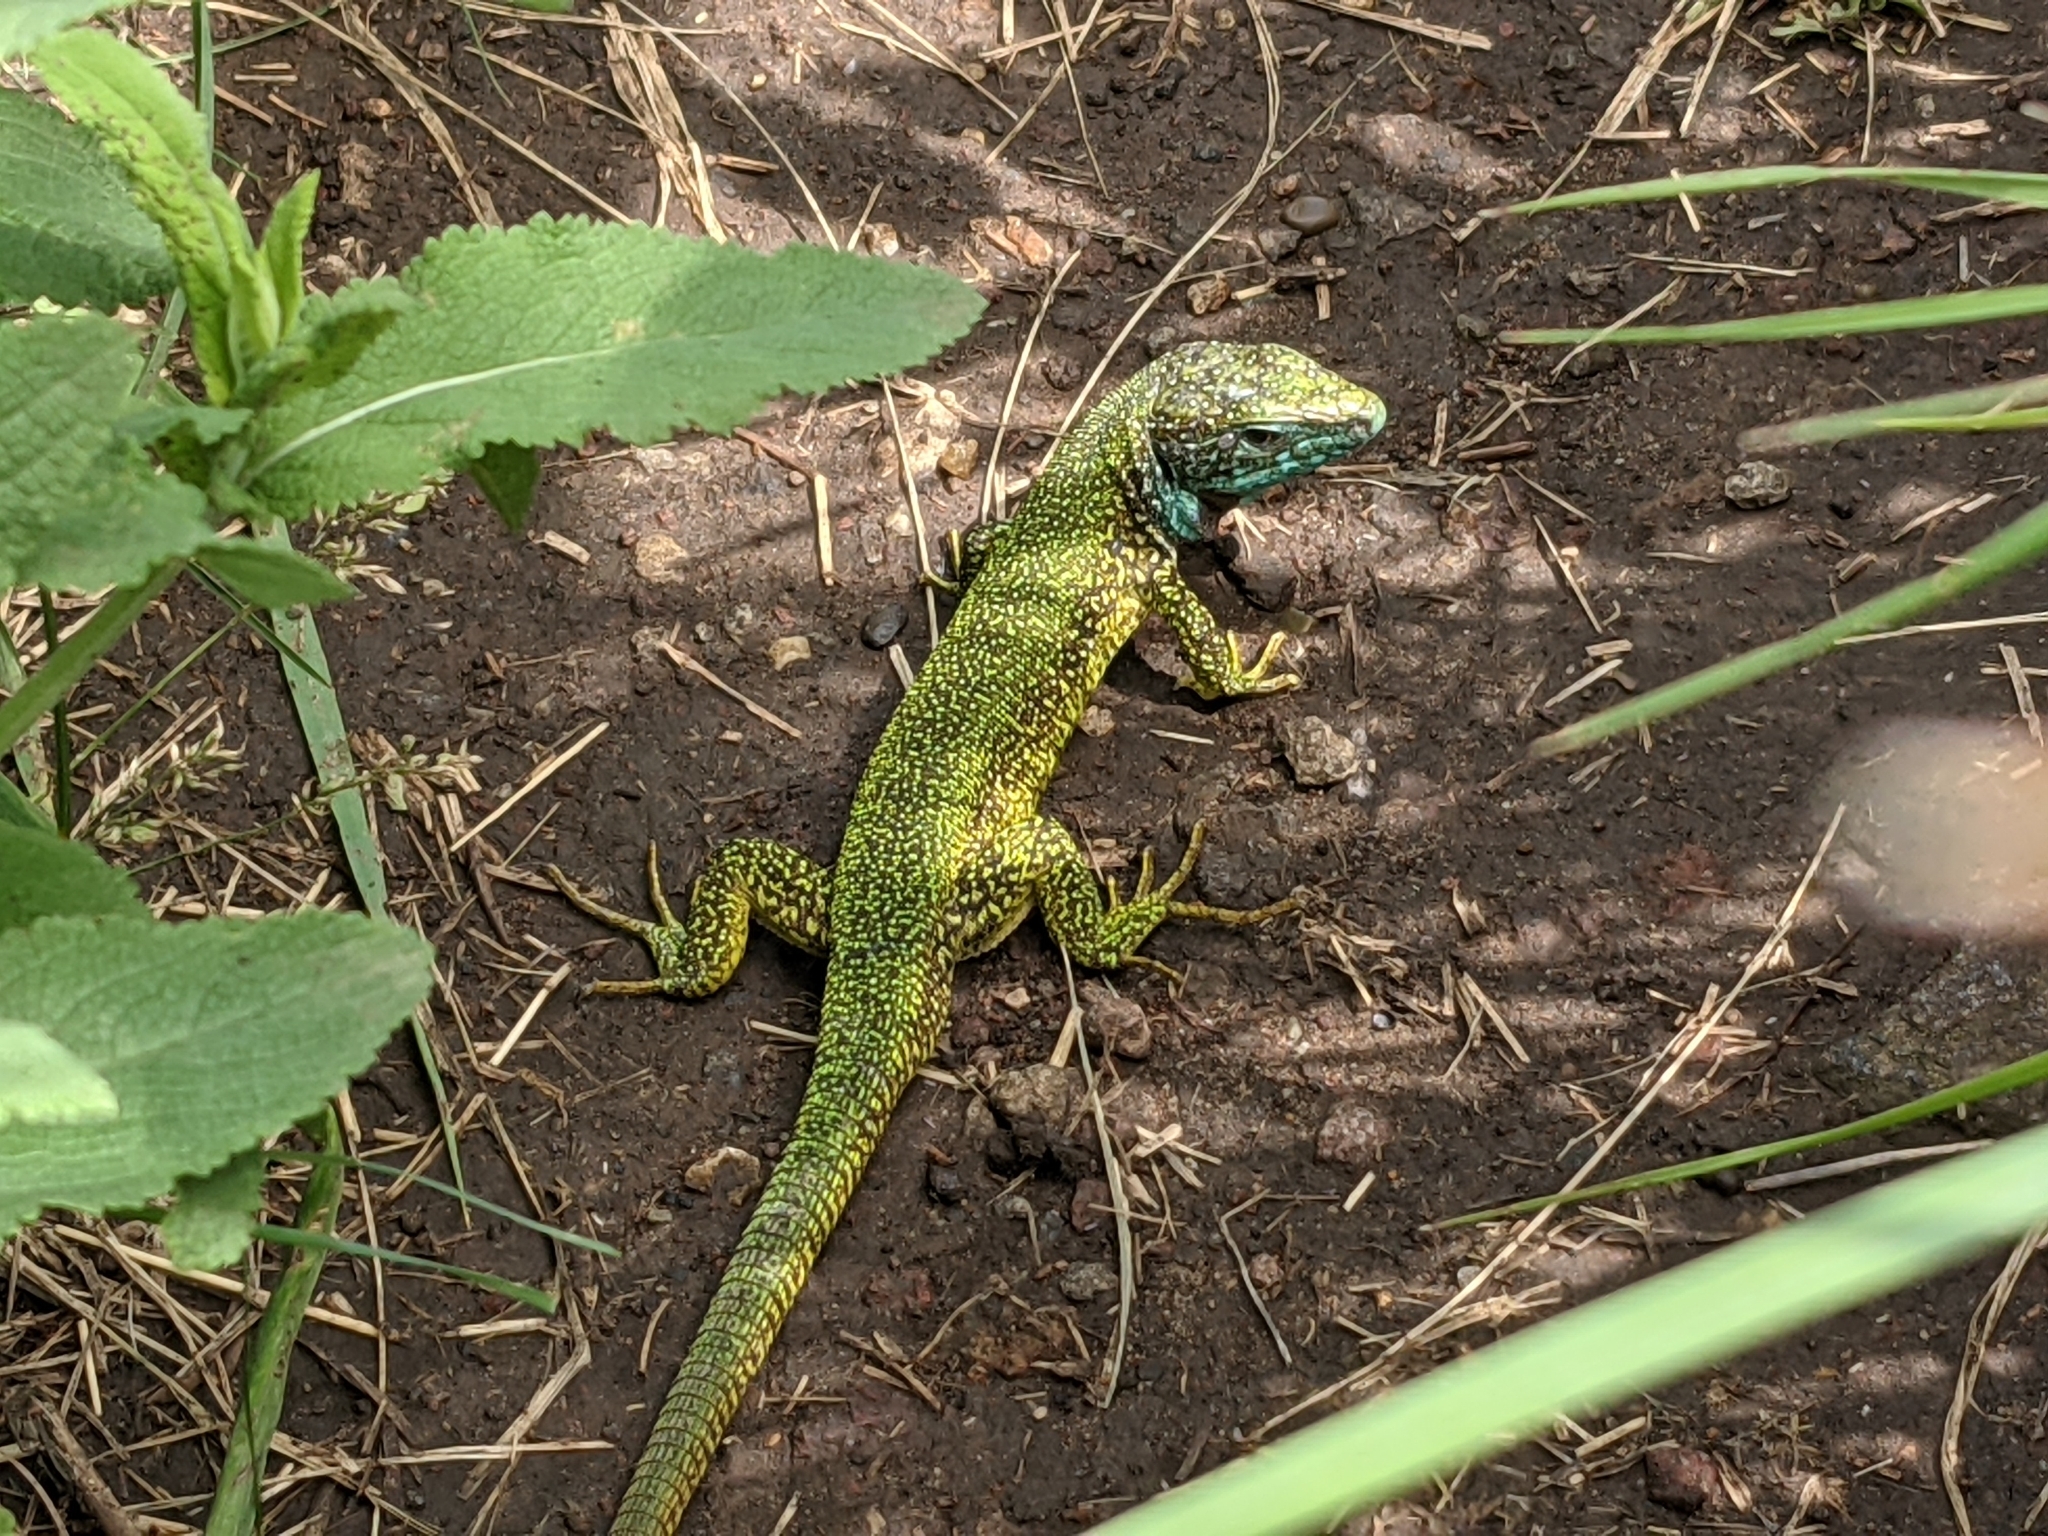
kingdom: Animalia
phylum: Chordata
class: Squamata
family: Lacertidae
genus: Lacerta
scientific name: Lacerta viridis
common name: European green lizard
